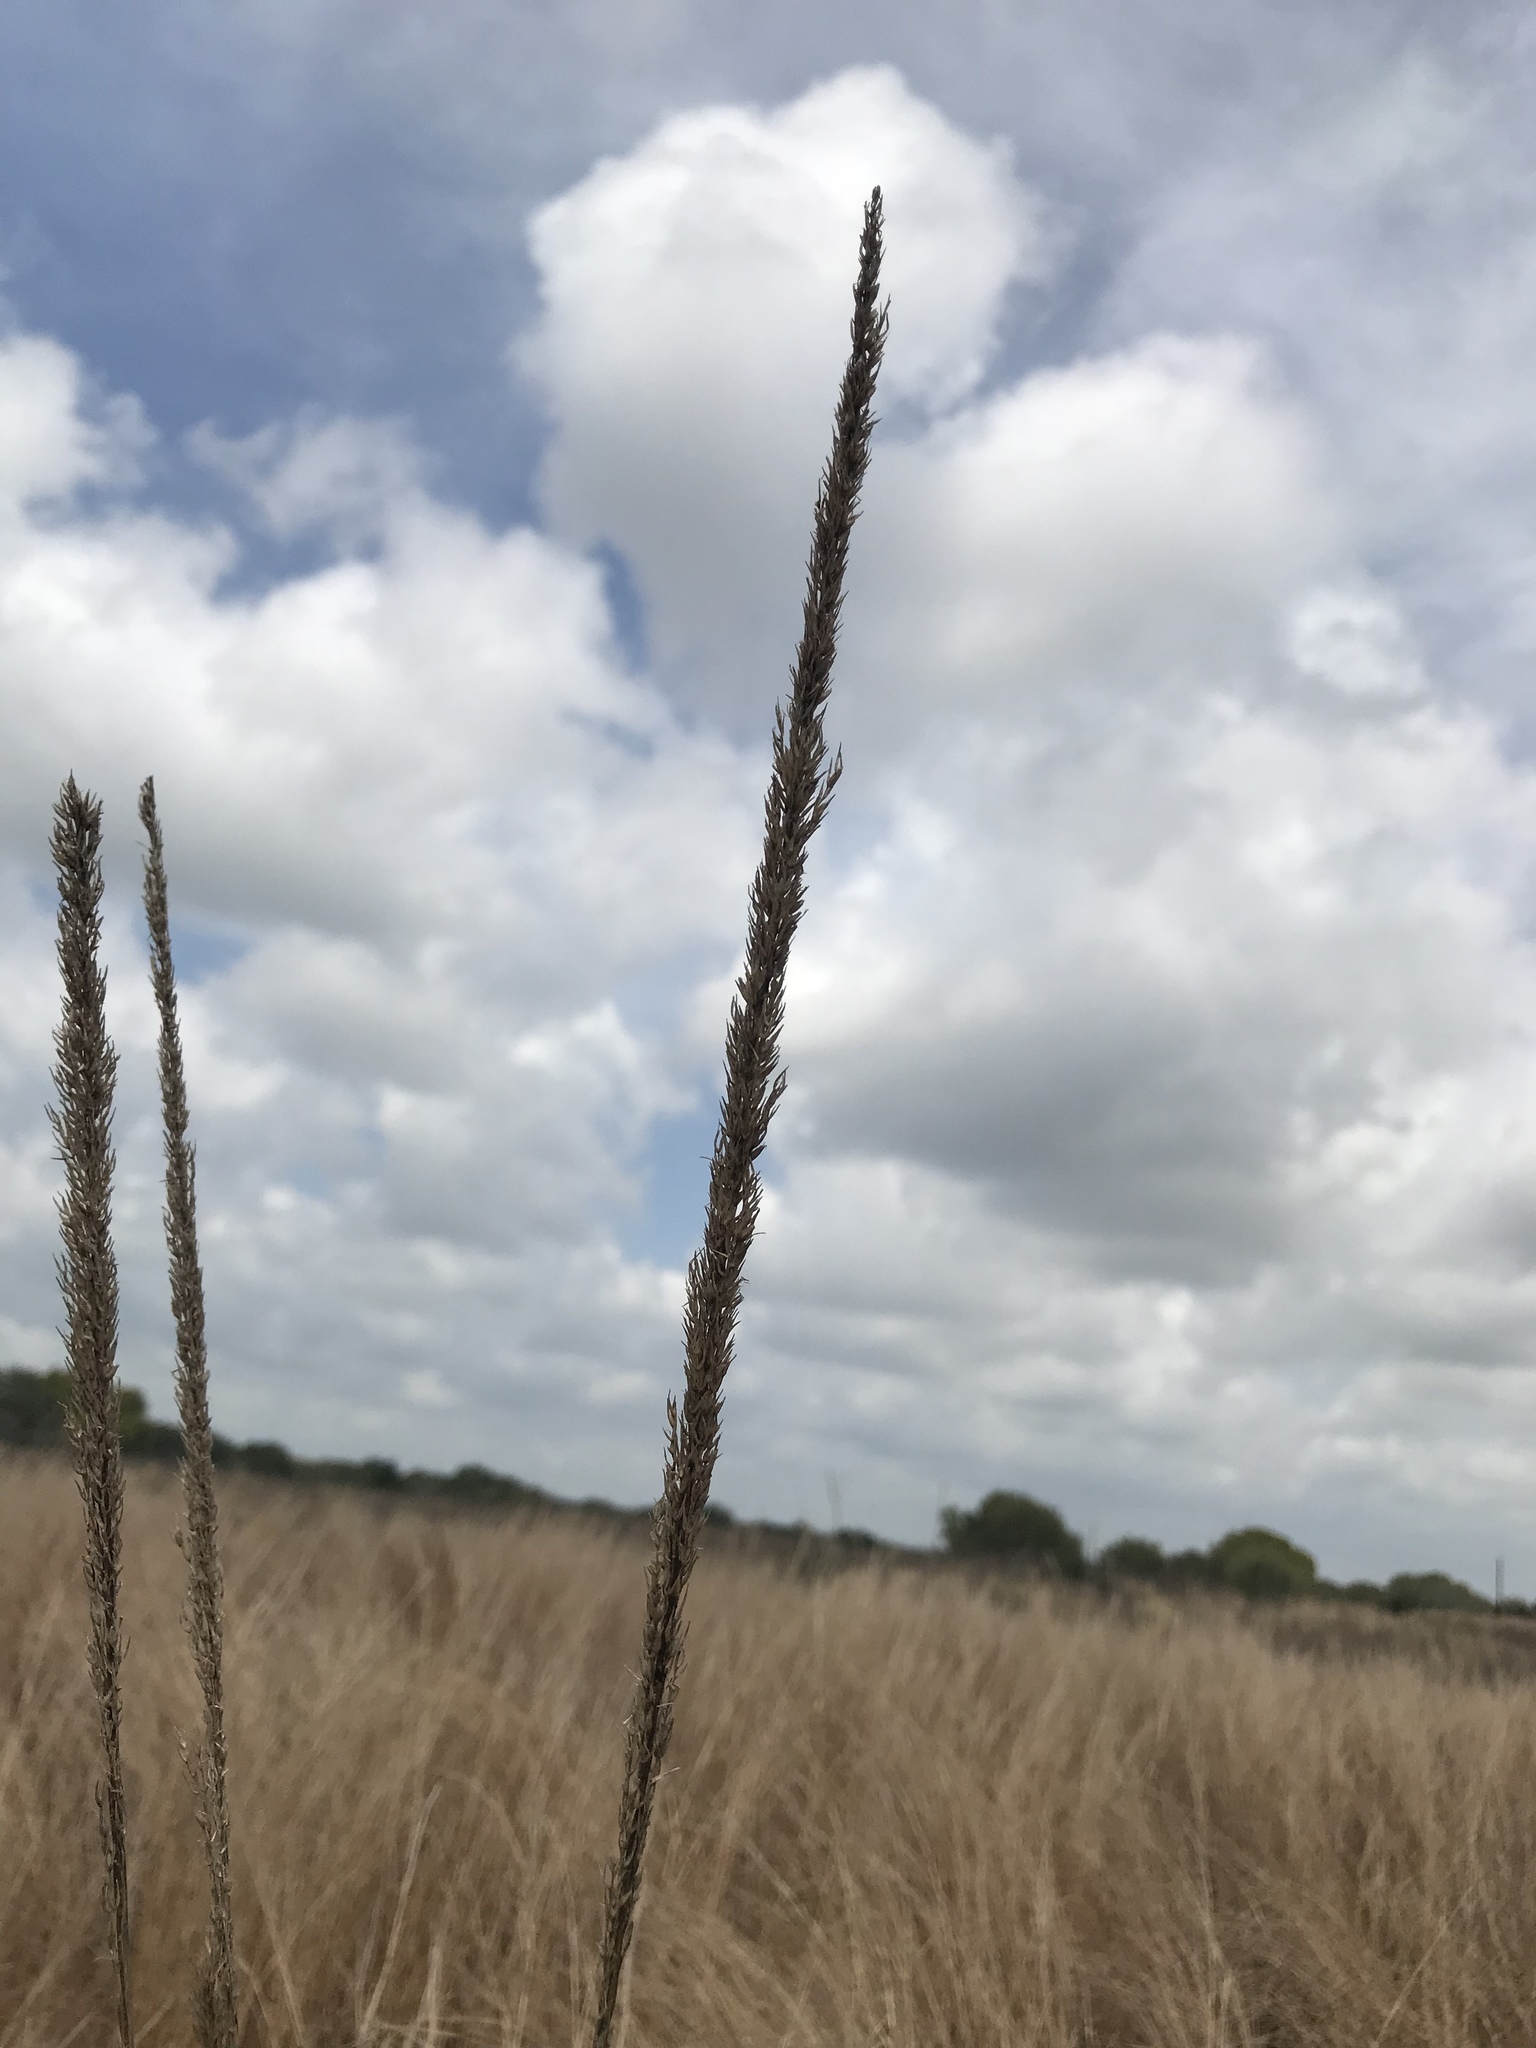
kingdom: Plantae
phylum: Tracheophyta
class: Liliopsida
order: Poales
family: Poaceae
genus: Tridens
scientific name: Tridens strictus
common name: Long-spike tridens
